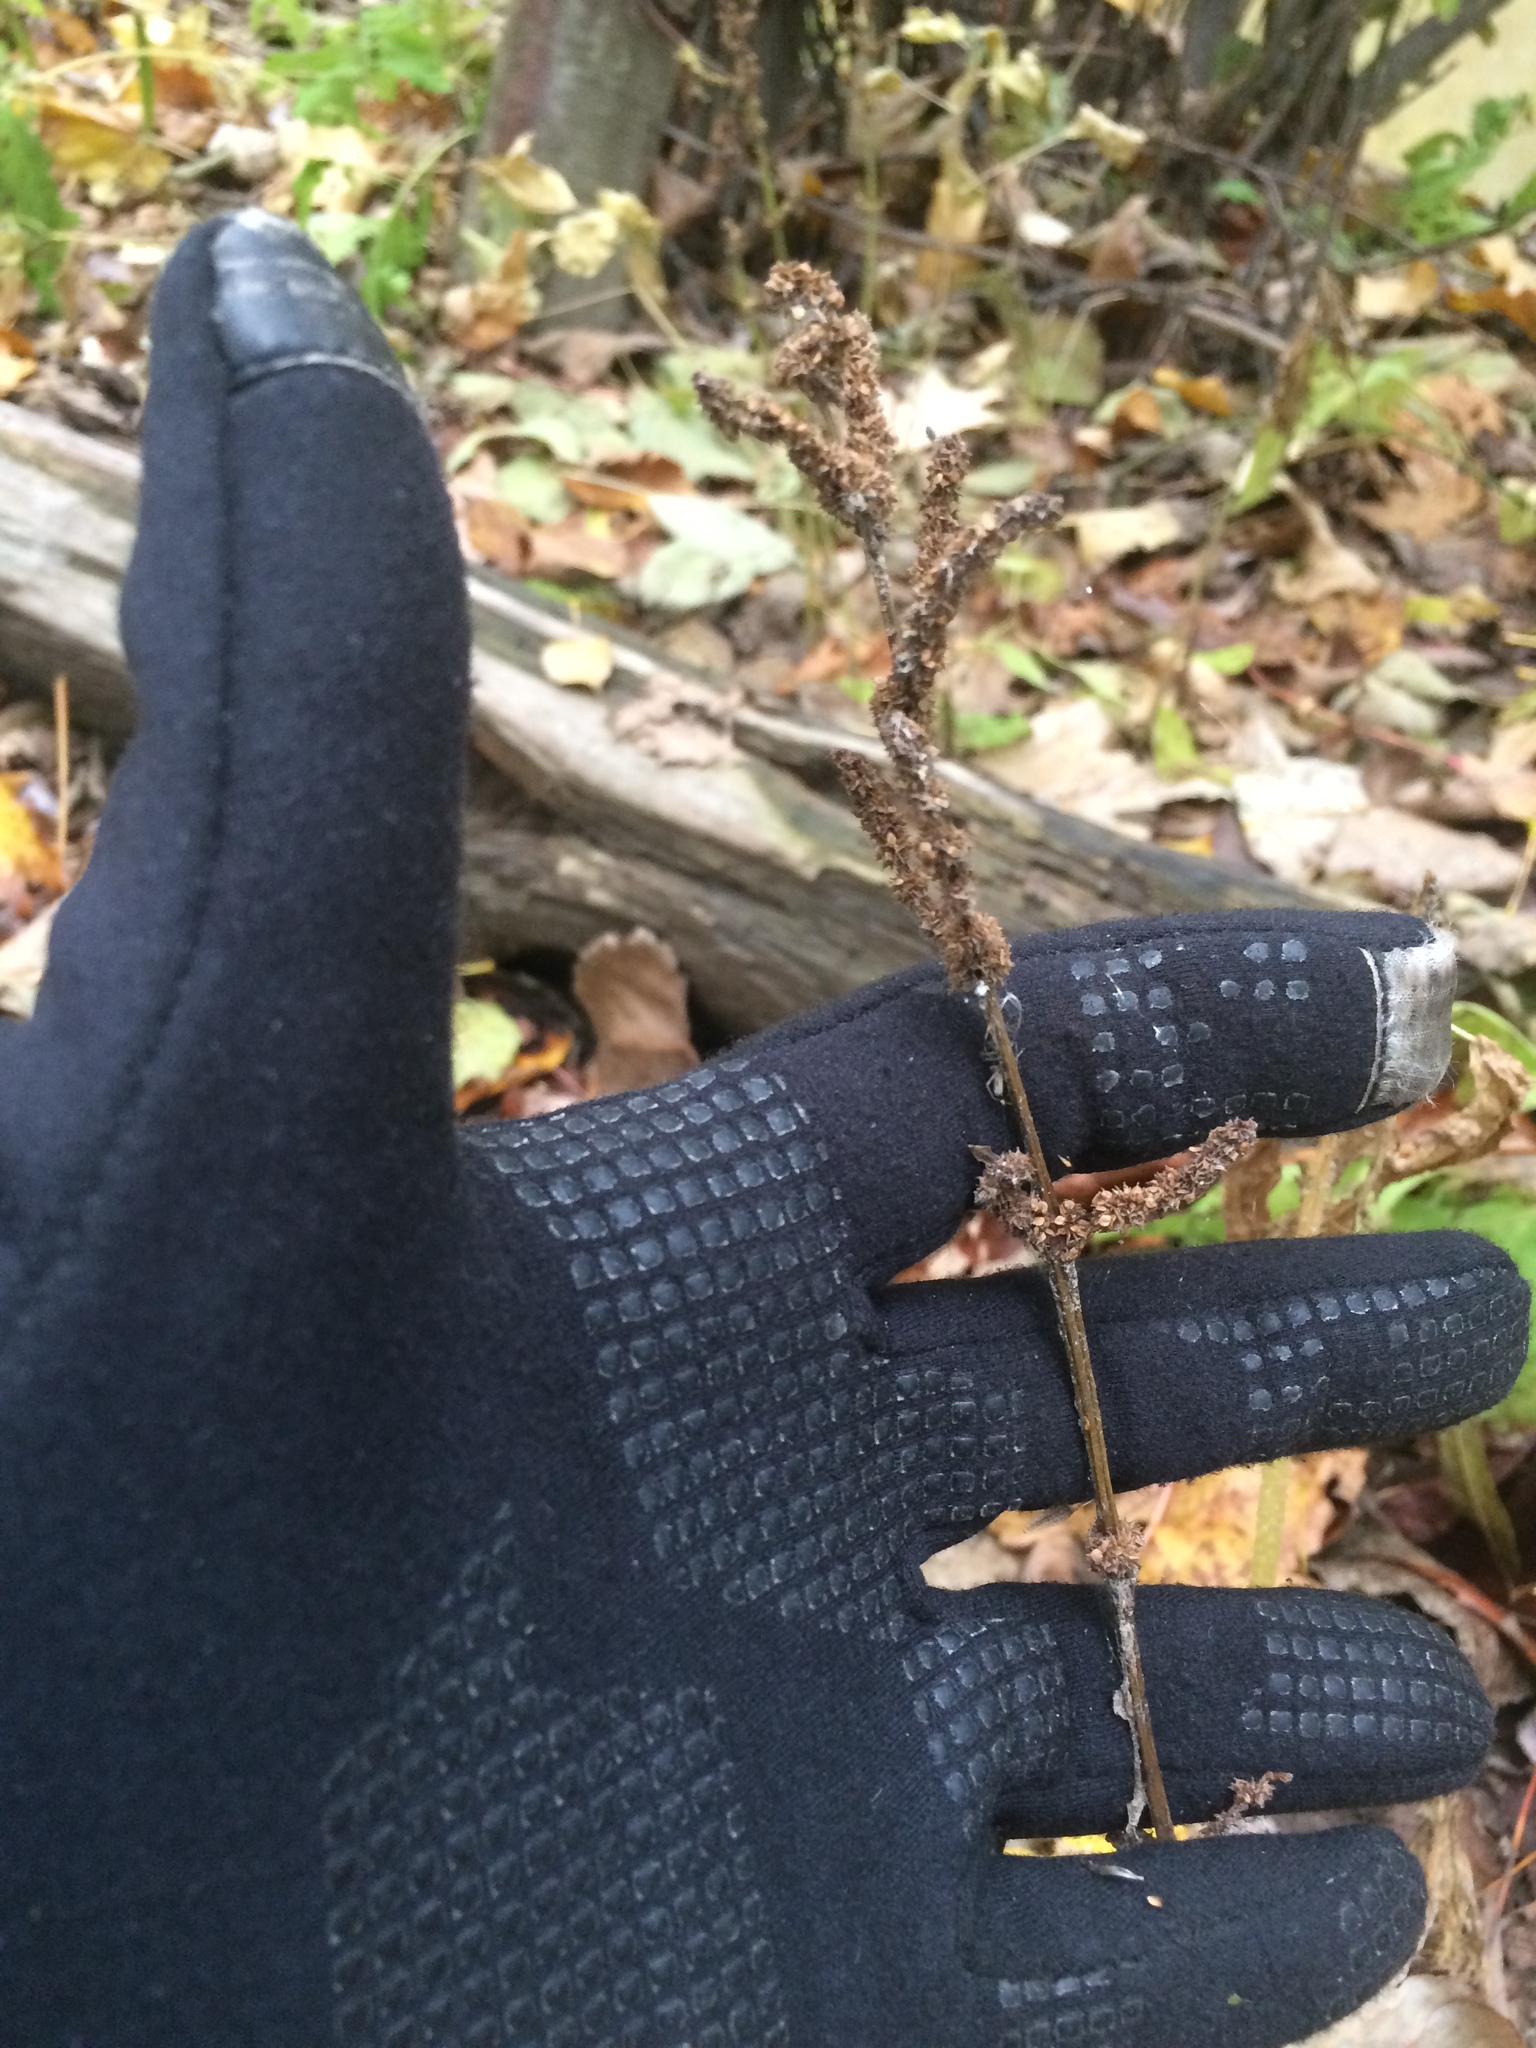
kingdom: Plantae
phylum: Tracheophyta
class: Magnoliopsida
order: Rosales
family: Urticaceae
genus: Boehmeria
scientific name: Boehmeria cylindrica
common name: Bog-hemp
